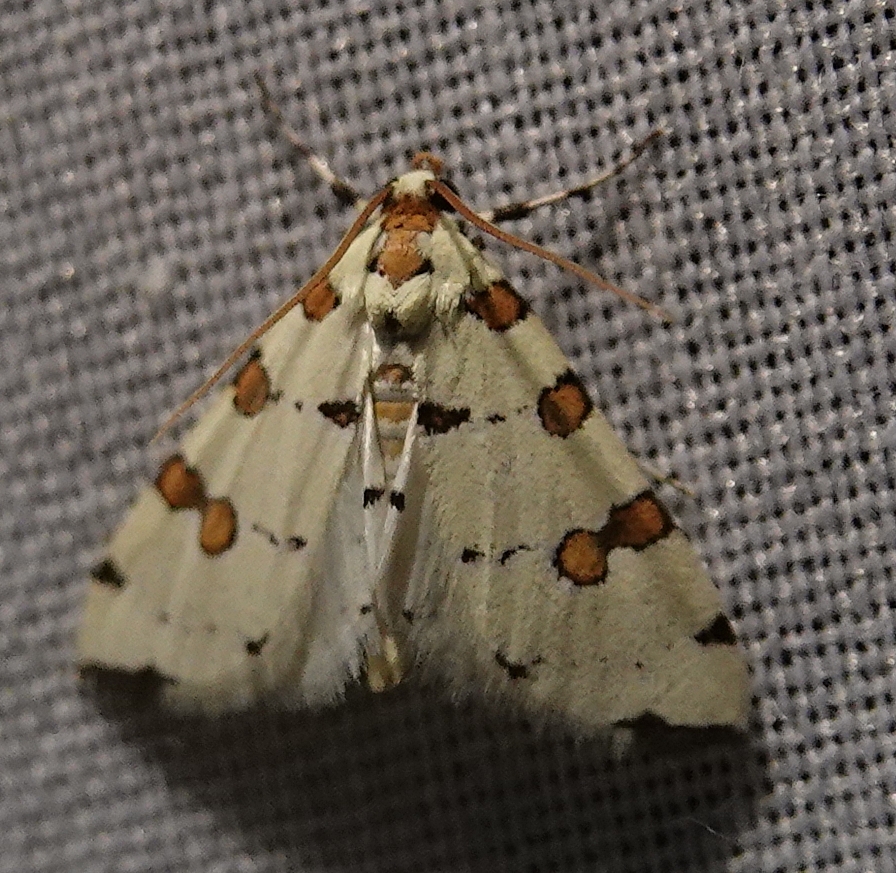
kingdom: Animalia
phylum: Arthropoda
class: Insecta
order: Lepidoptera
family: Crambidae
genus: Conchylodes
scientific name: Conchylodes
